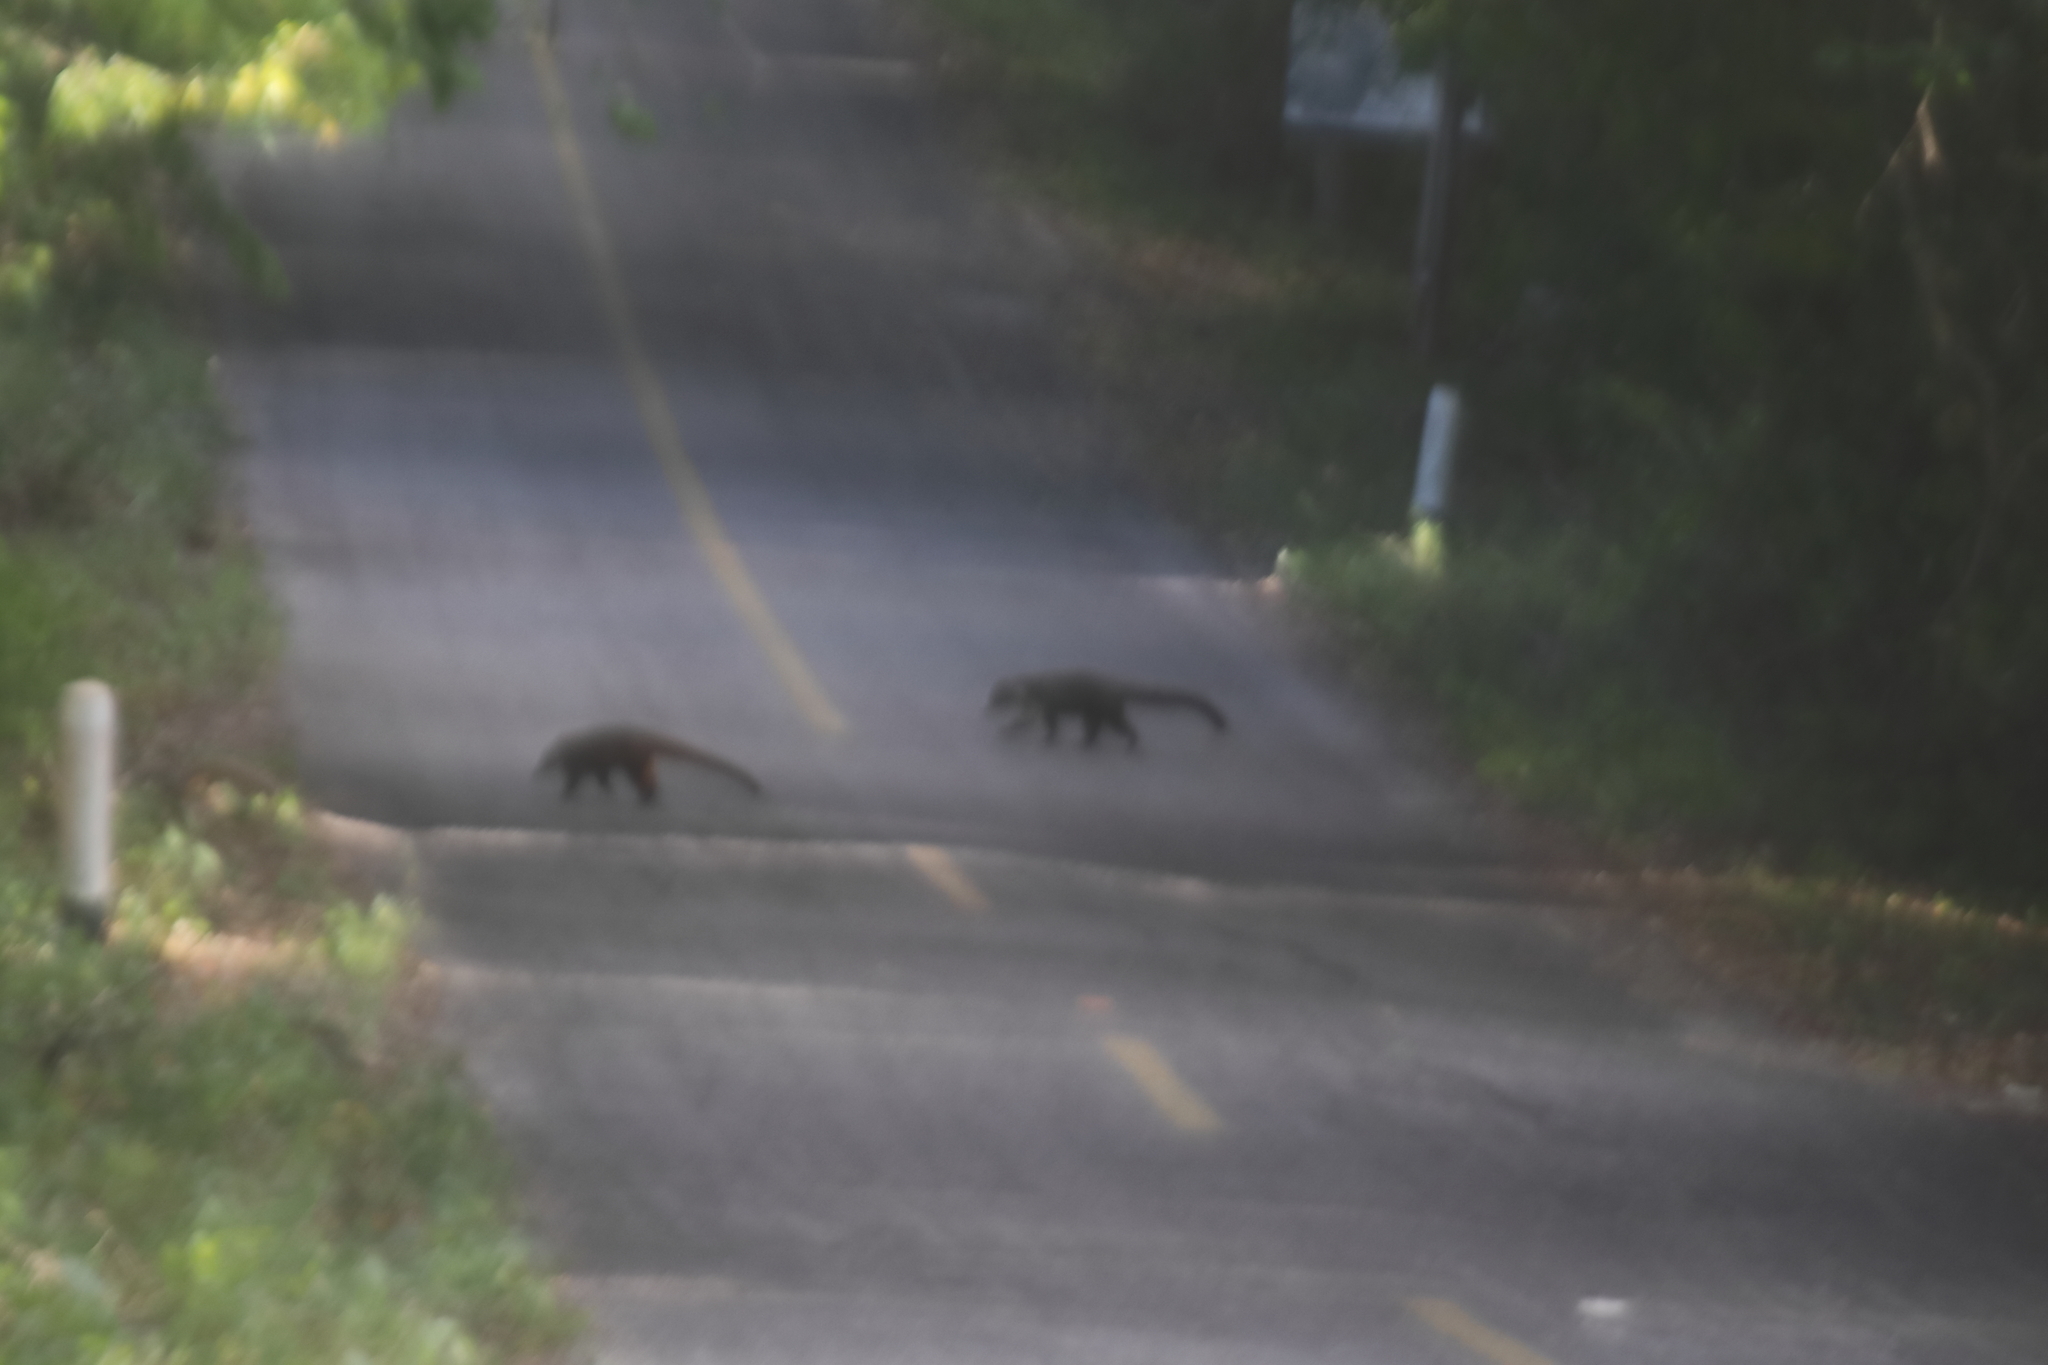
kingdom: Animalia
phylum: Chordata
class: Mammalia
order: Carnivora
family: Procyonidae
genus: Nasua
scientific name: Nasua narica
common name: White-nosed coati
